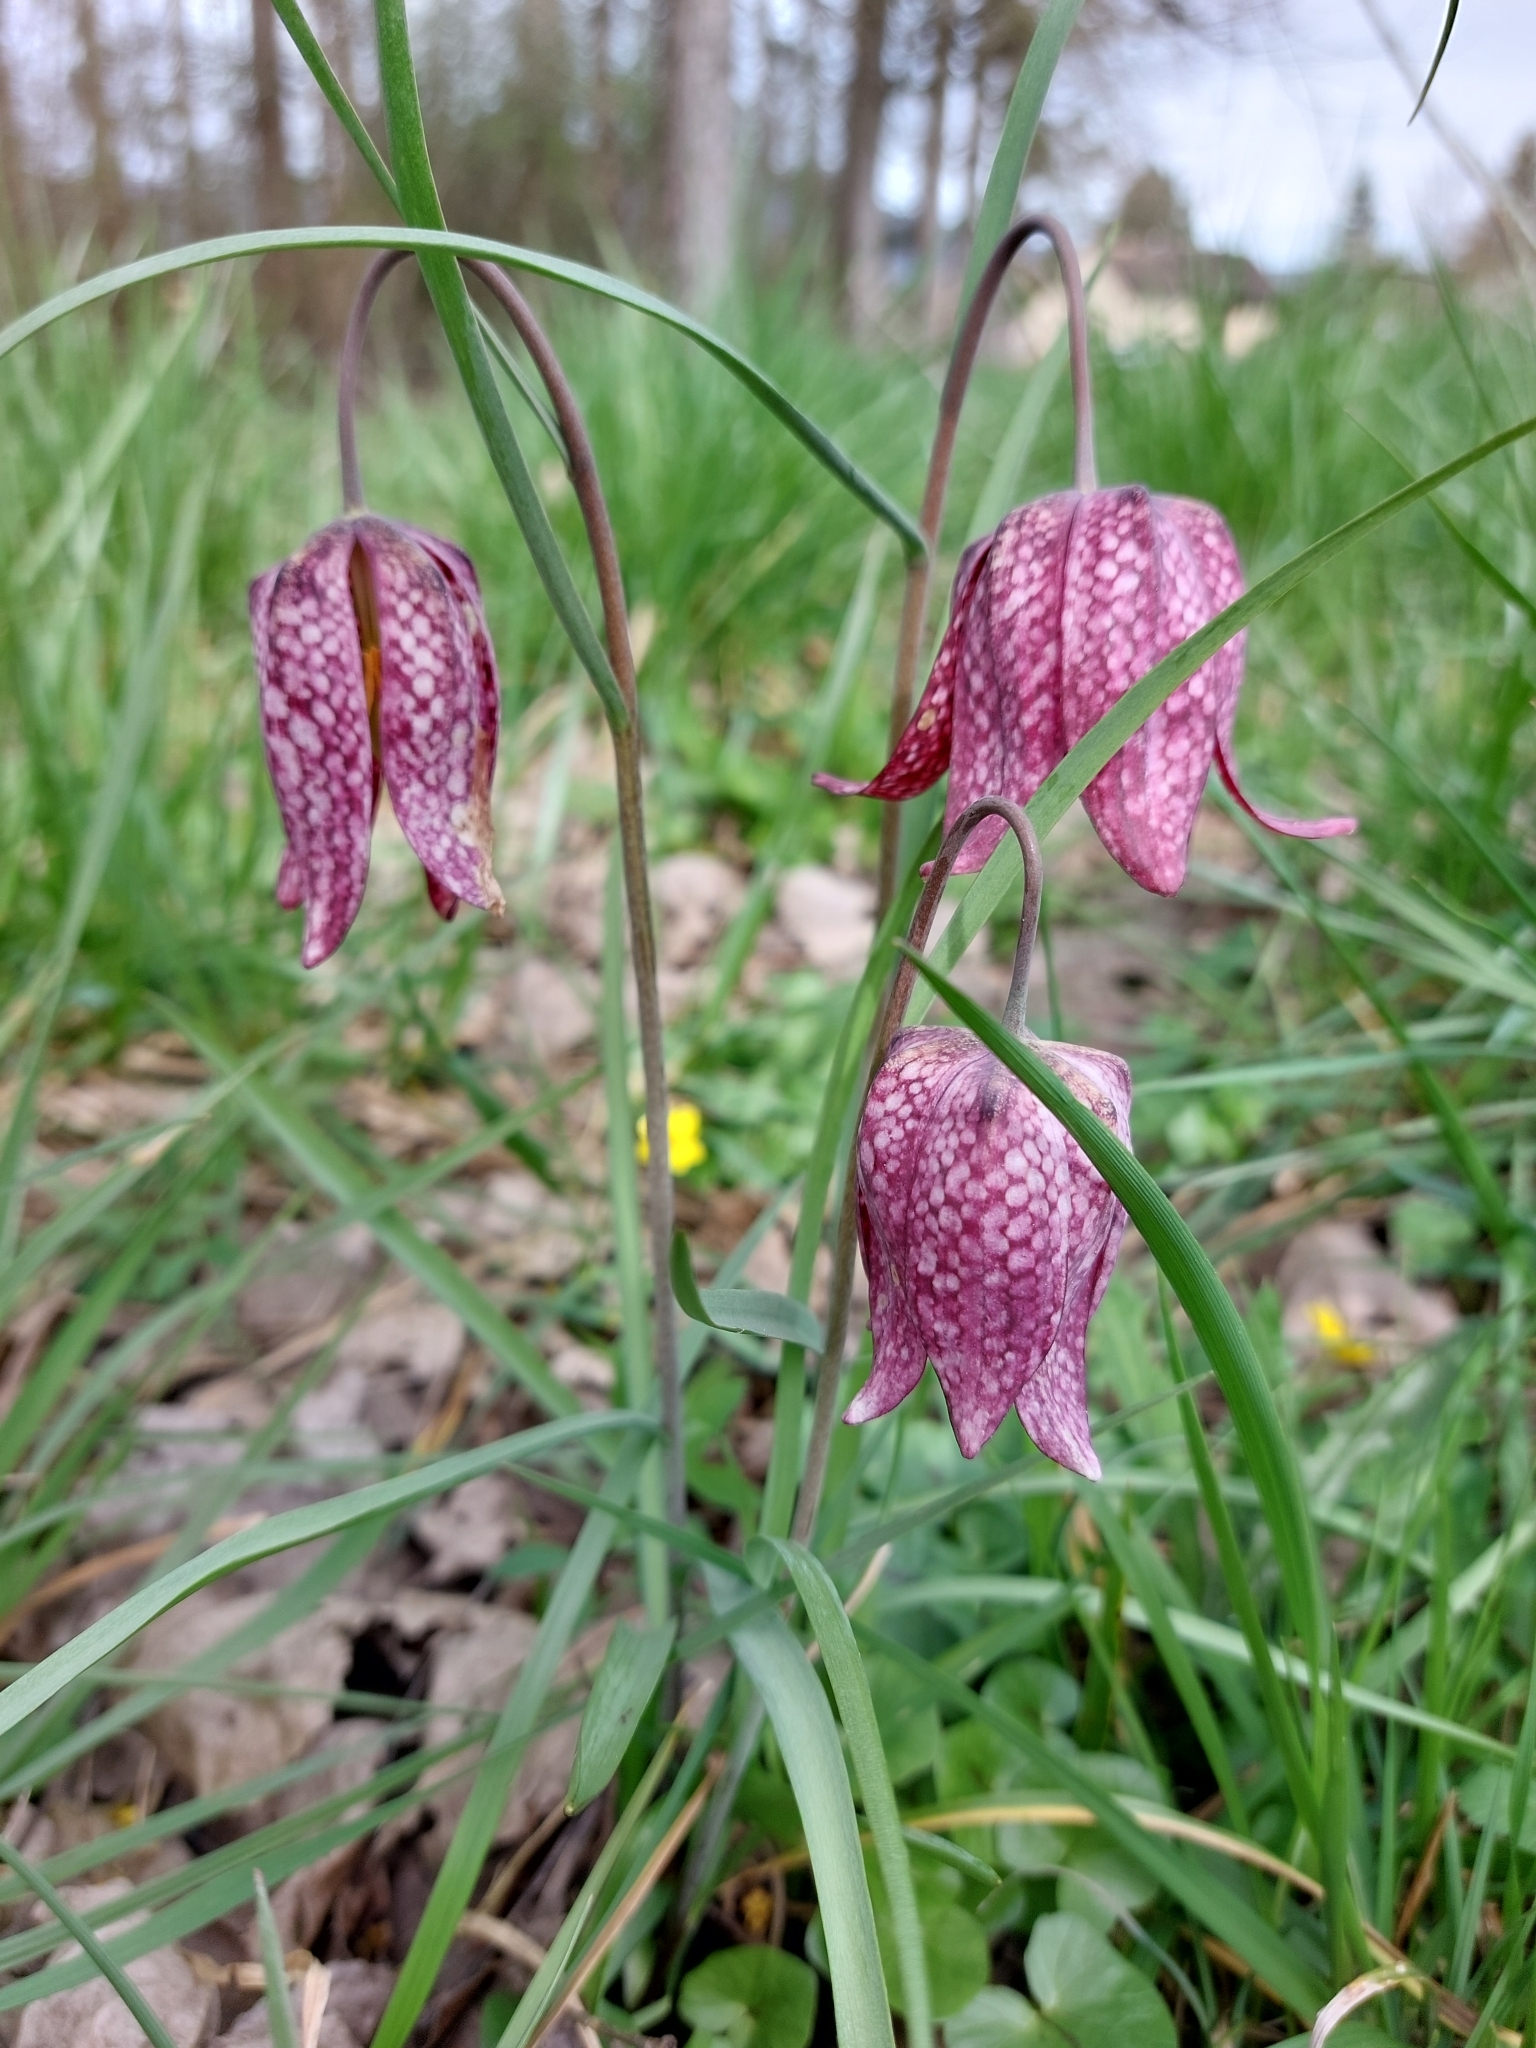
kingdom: Plantae
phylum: Tracheophyta
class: Liliopsida
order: Liliales
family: Liliaceae
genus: Fritillaria
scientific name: Fritillaria meleagris
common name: Fritillary
